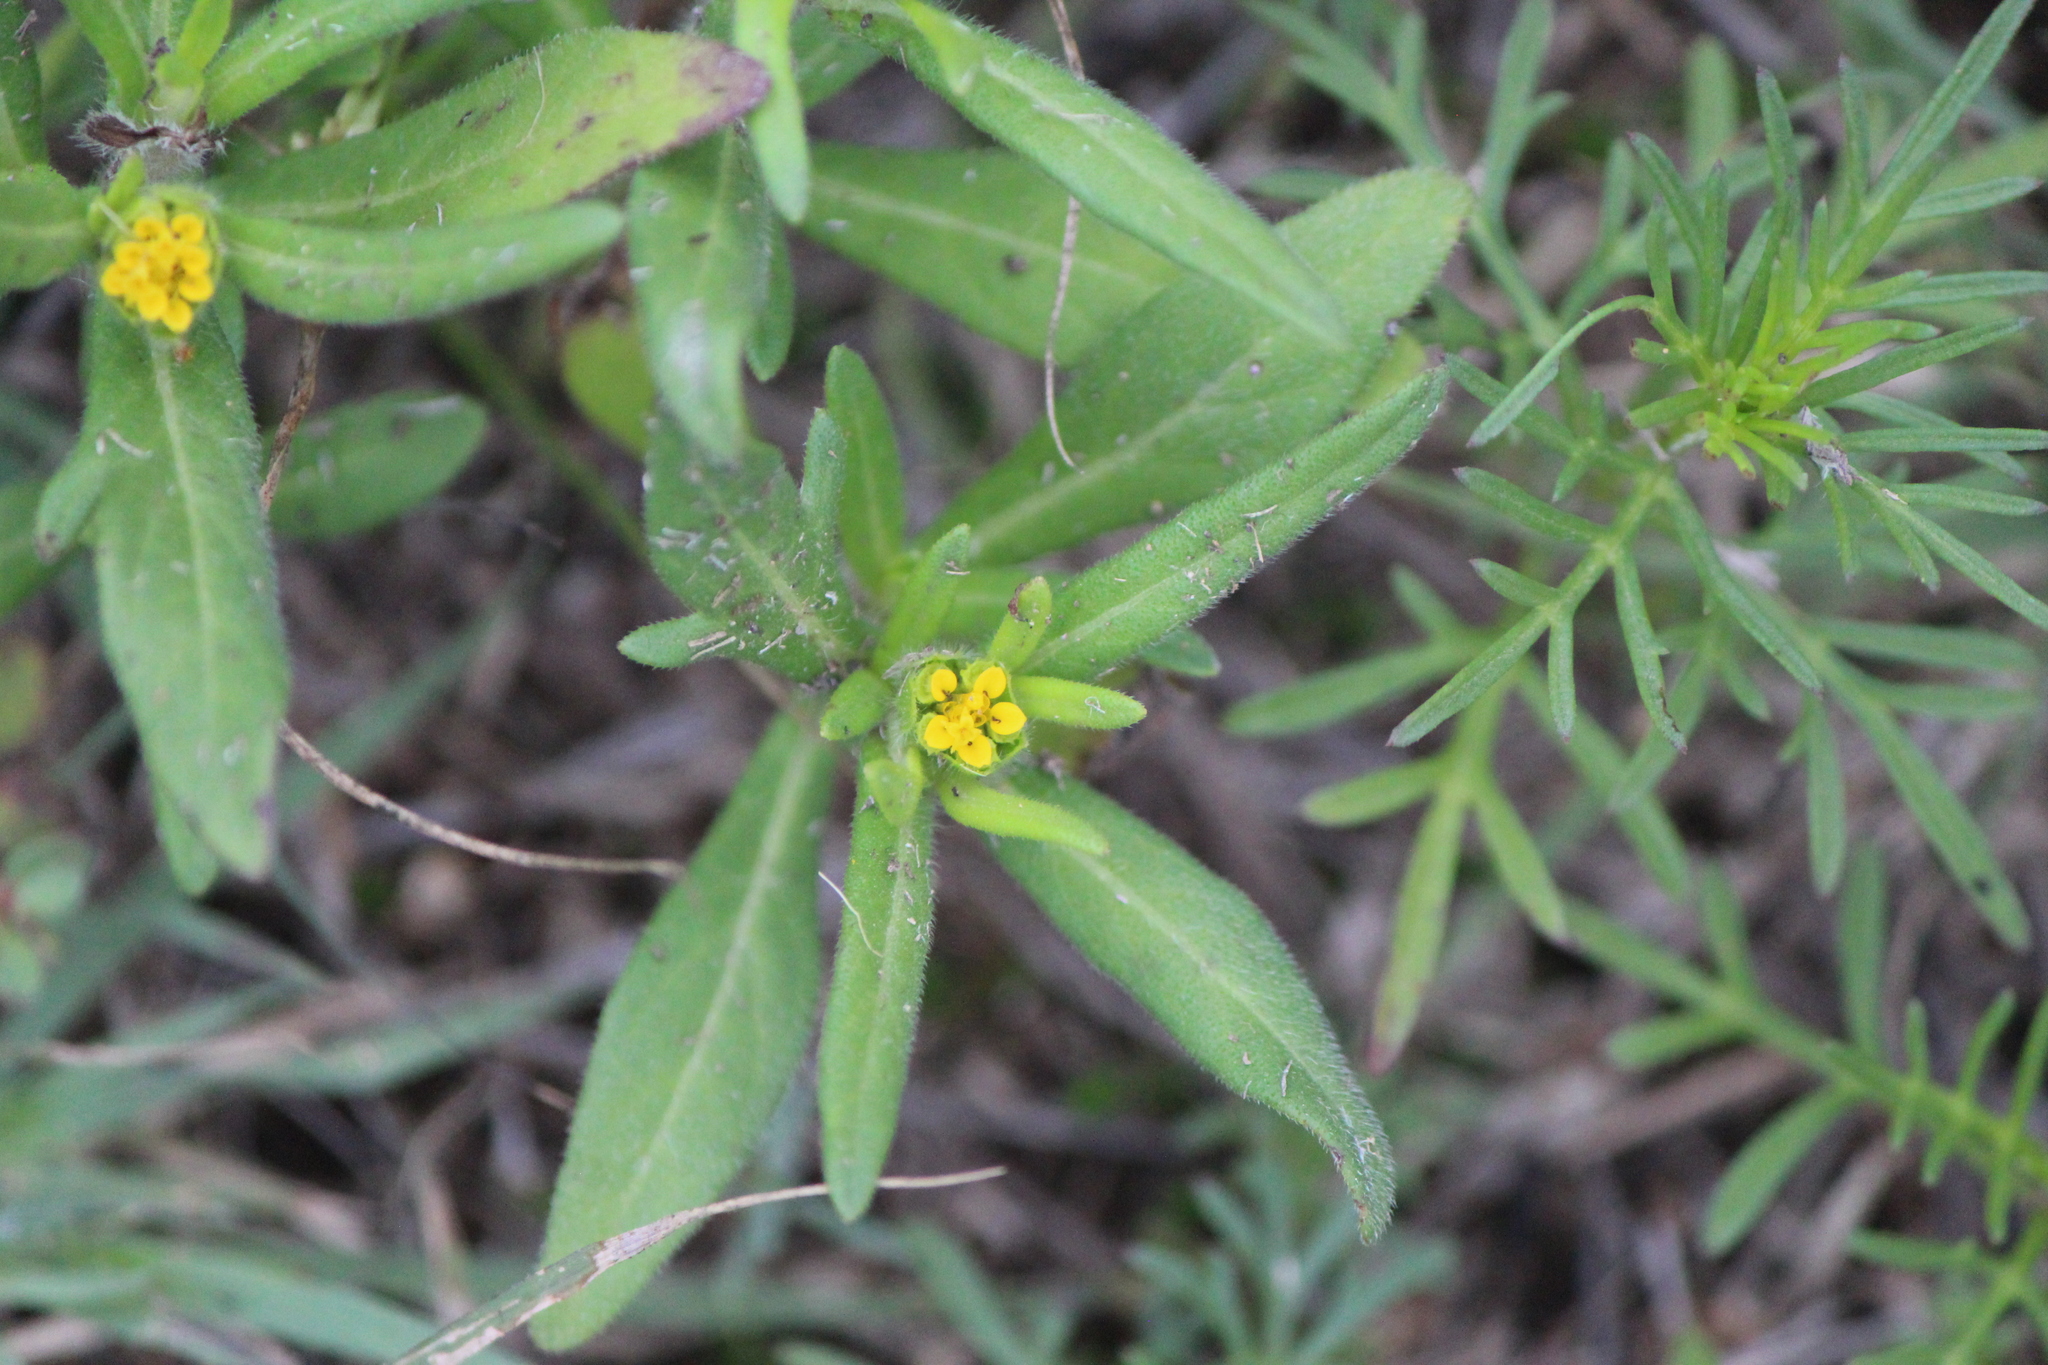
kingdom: Plantae
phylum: Tracheophyta
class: Magnoliopsida
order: Asterales
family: Asteraceae
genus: Melampodium
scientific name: Melampodium sericeum
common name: Rough blackfoot
